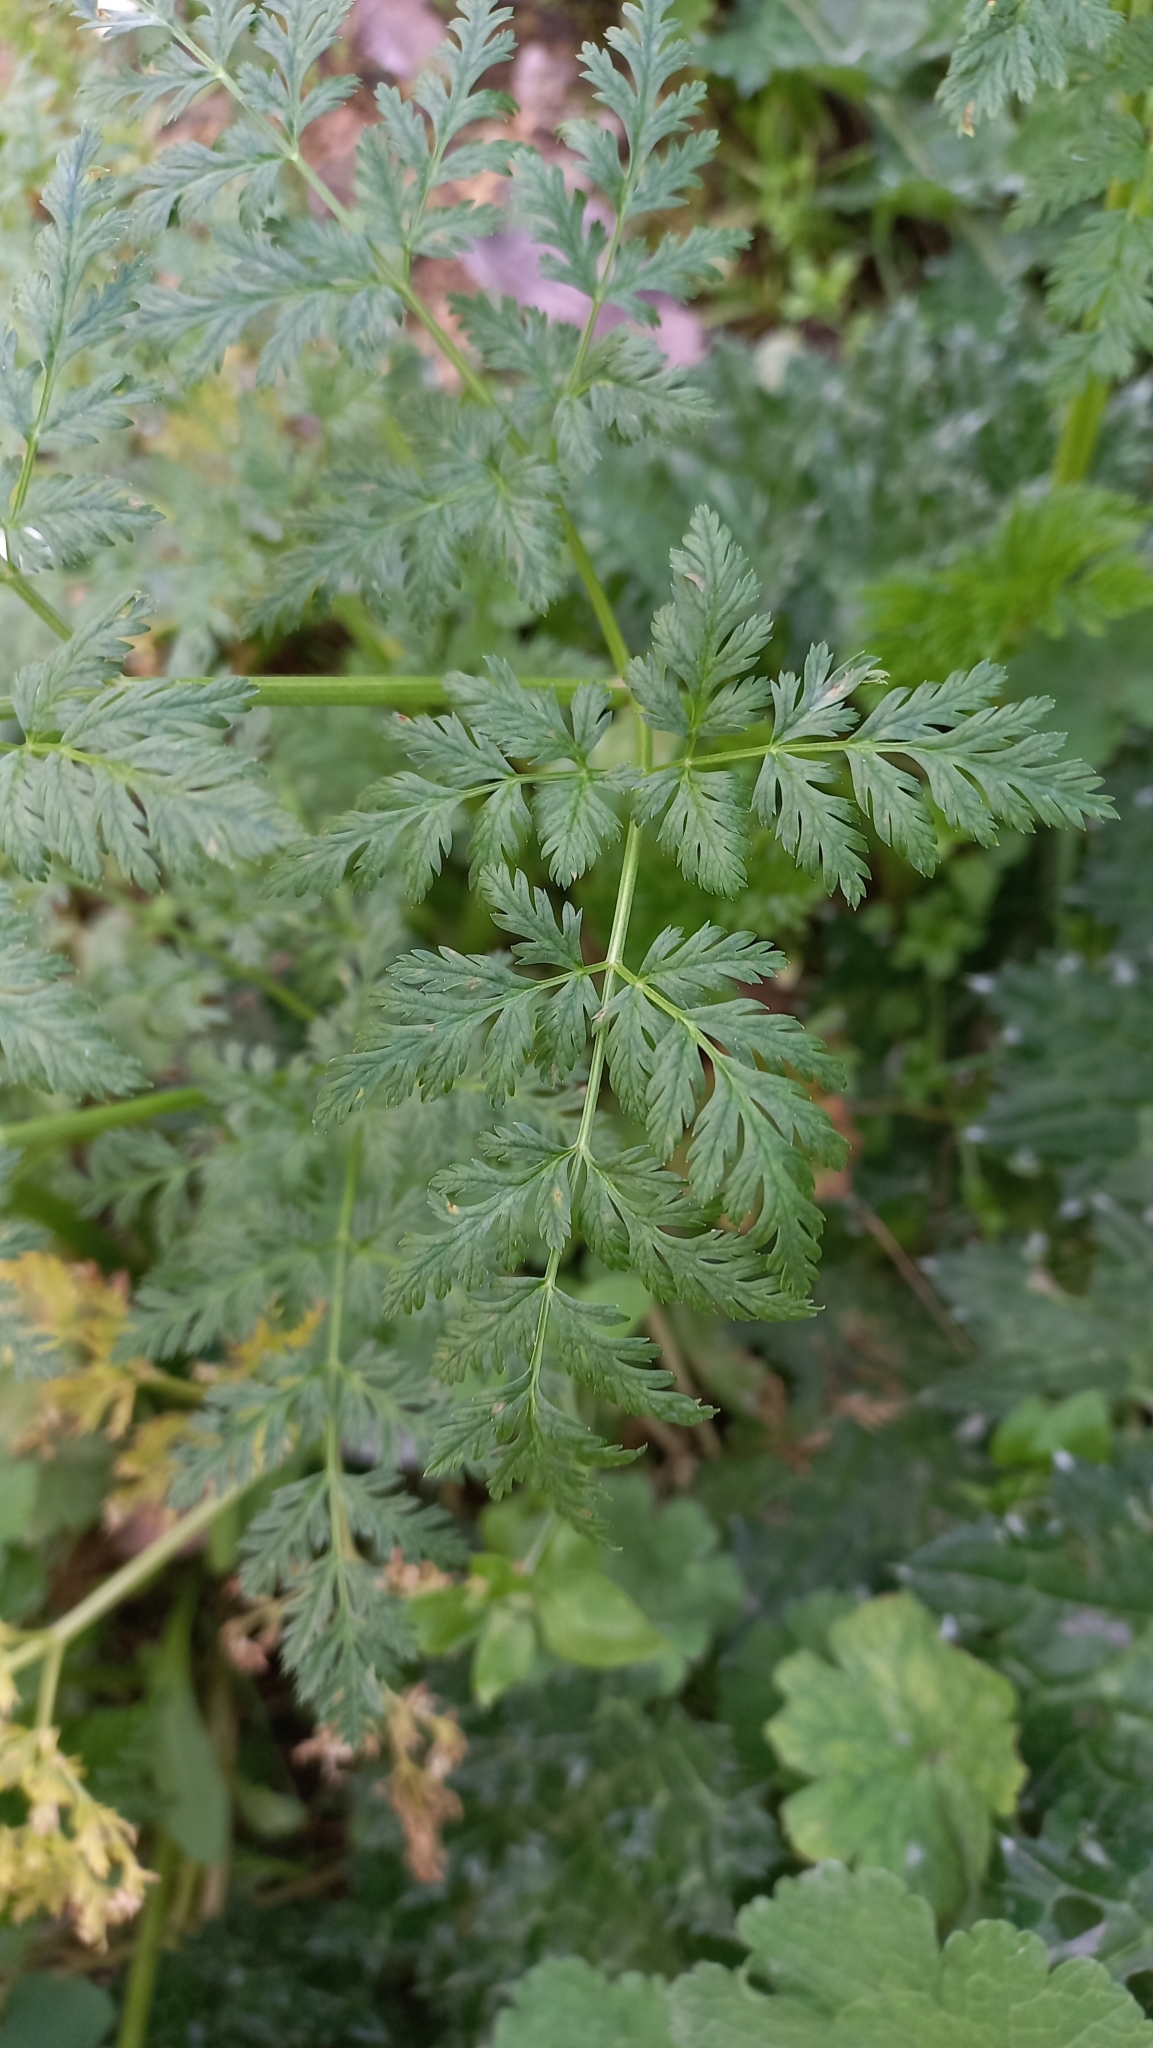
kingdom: Plantae
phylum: Tracheophyta
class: Magnoliopsida
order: Apiales
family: Apiaceae
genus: Conium
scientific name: Conium maculatum
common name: Hemlock
